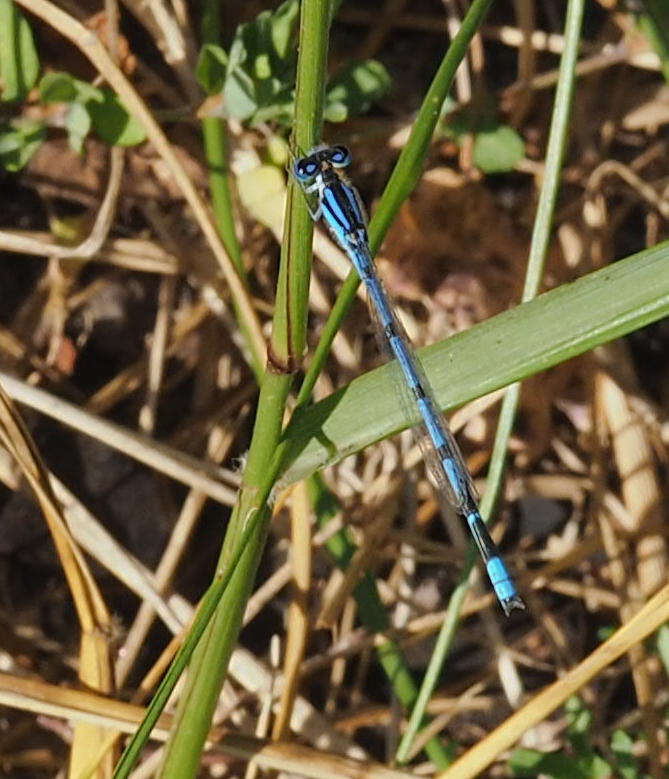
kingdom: Animalia
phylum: Arthropoda
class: Insecta
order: Odonata
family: Coenagrionidae
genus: Enallagma
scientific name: Enallagma civile
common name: Damselfly
